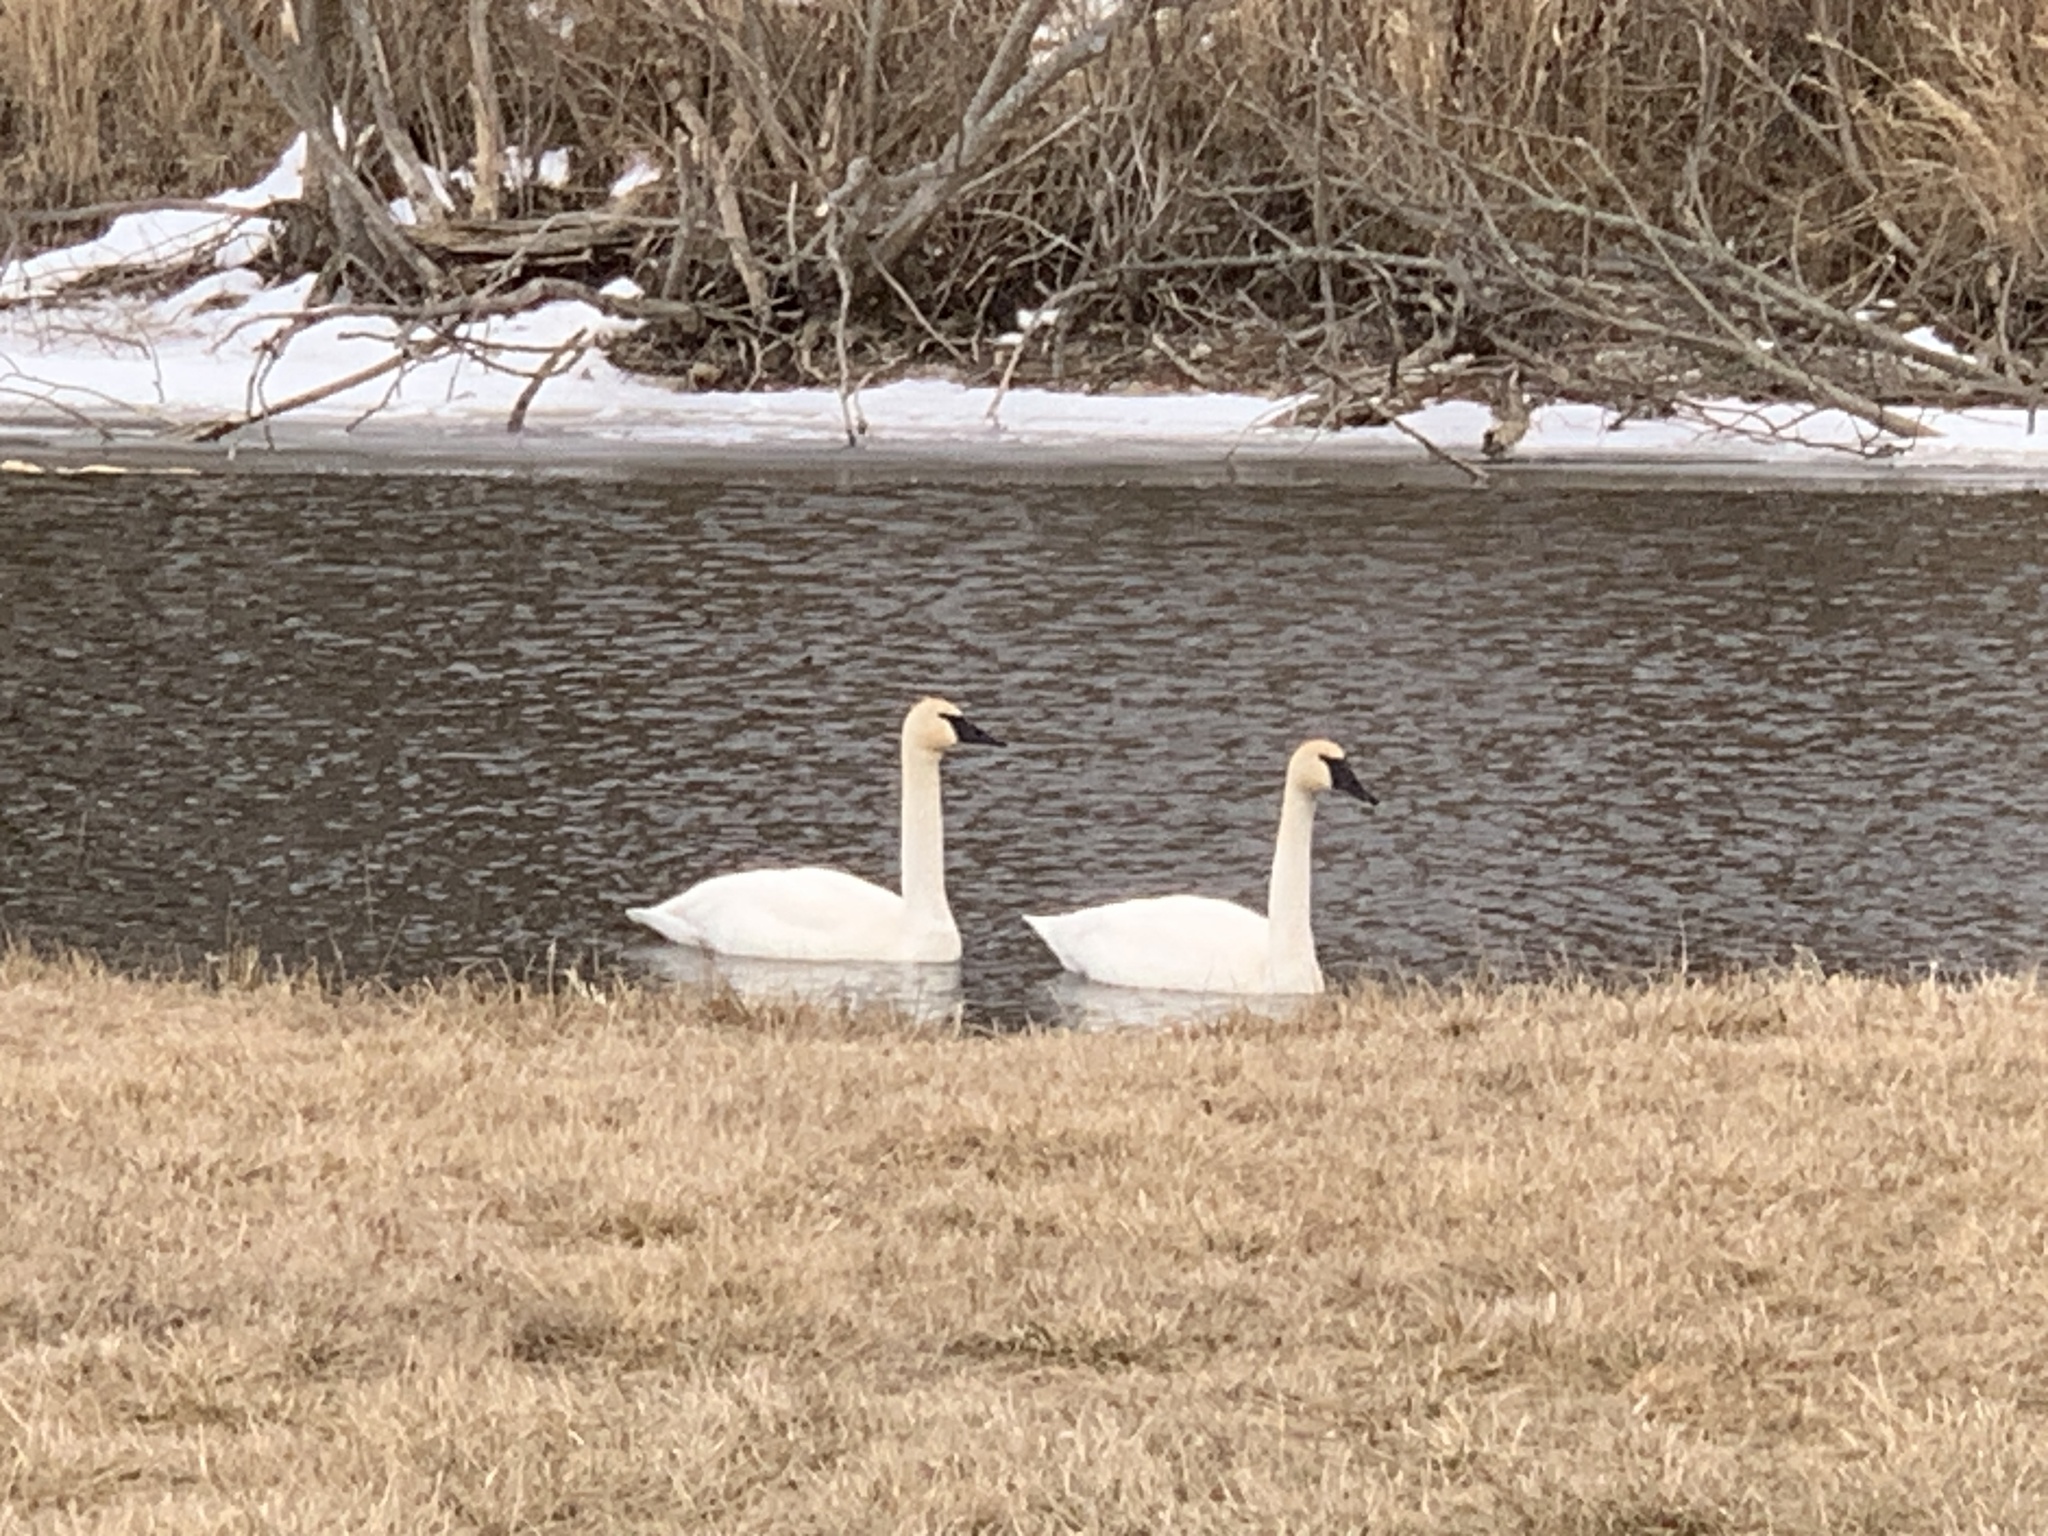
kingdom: Animalia
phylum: Chordata
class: Aves
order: Anseriformes
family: Anatidae
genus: Cygnus
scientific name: Cygnus buccinator
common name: Trumpeter swan
